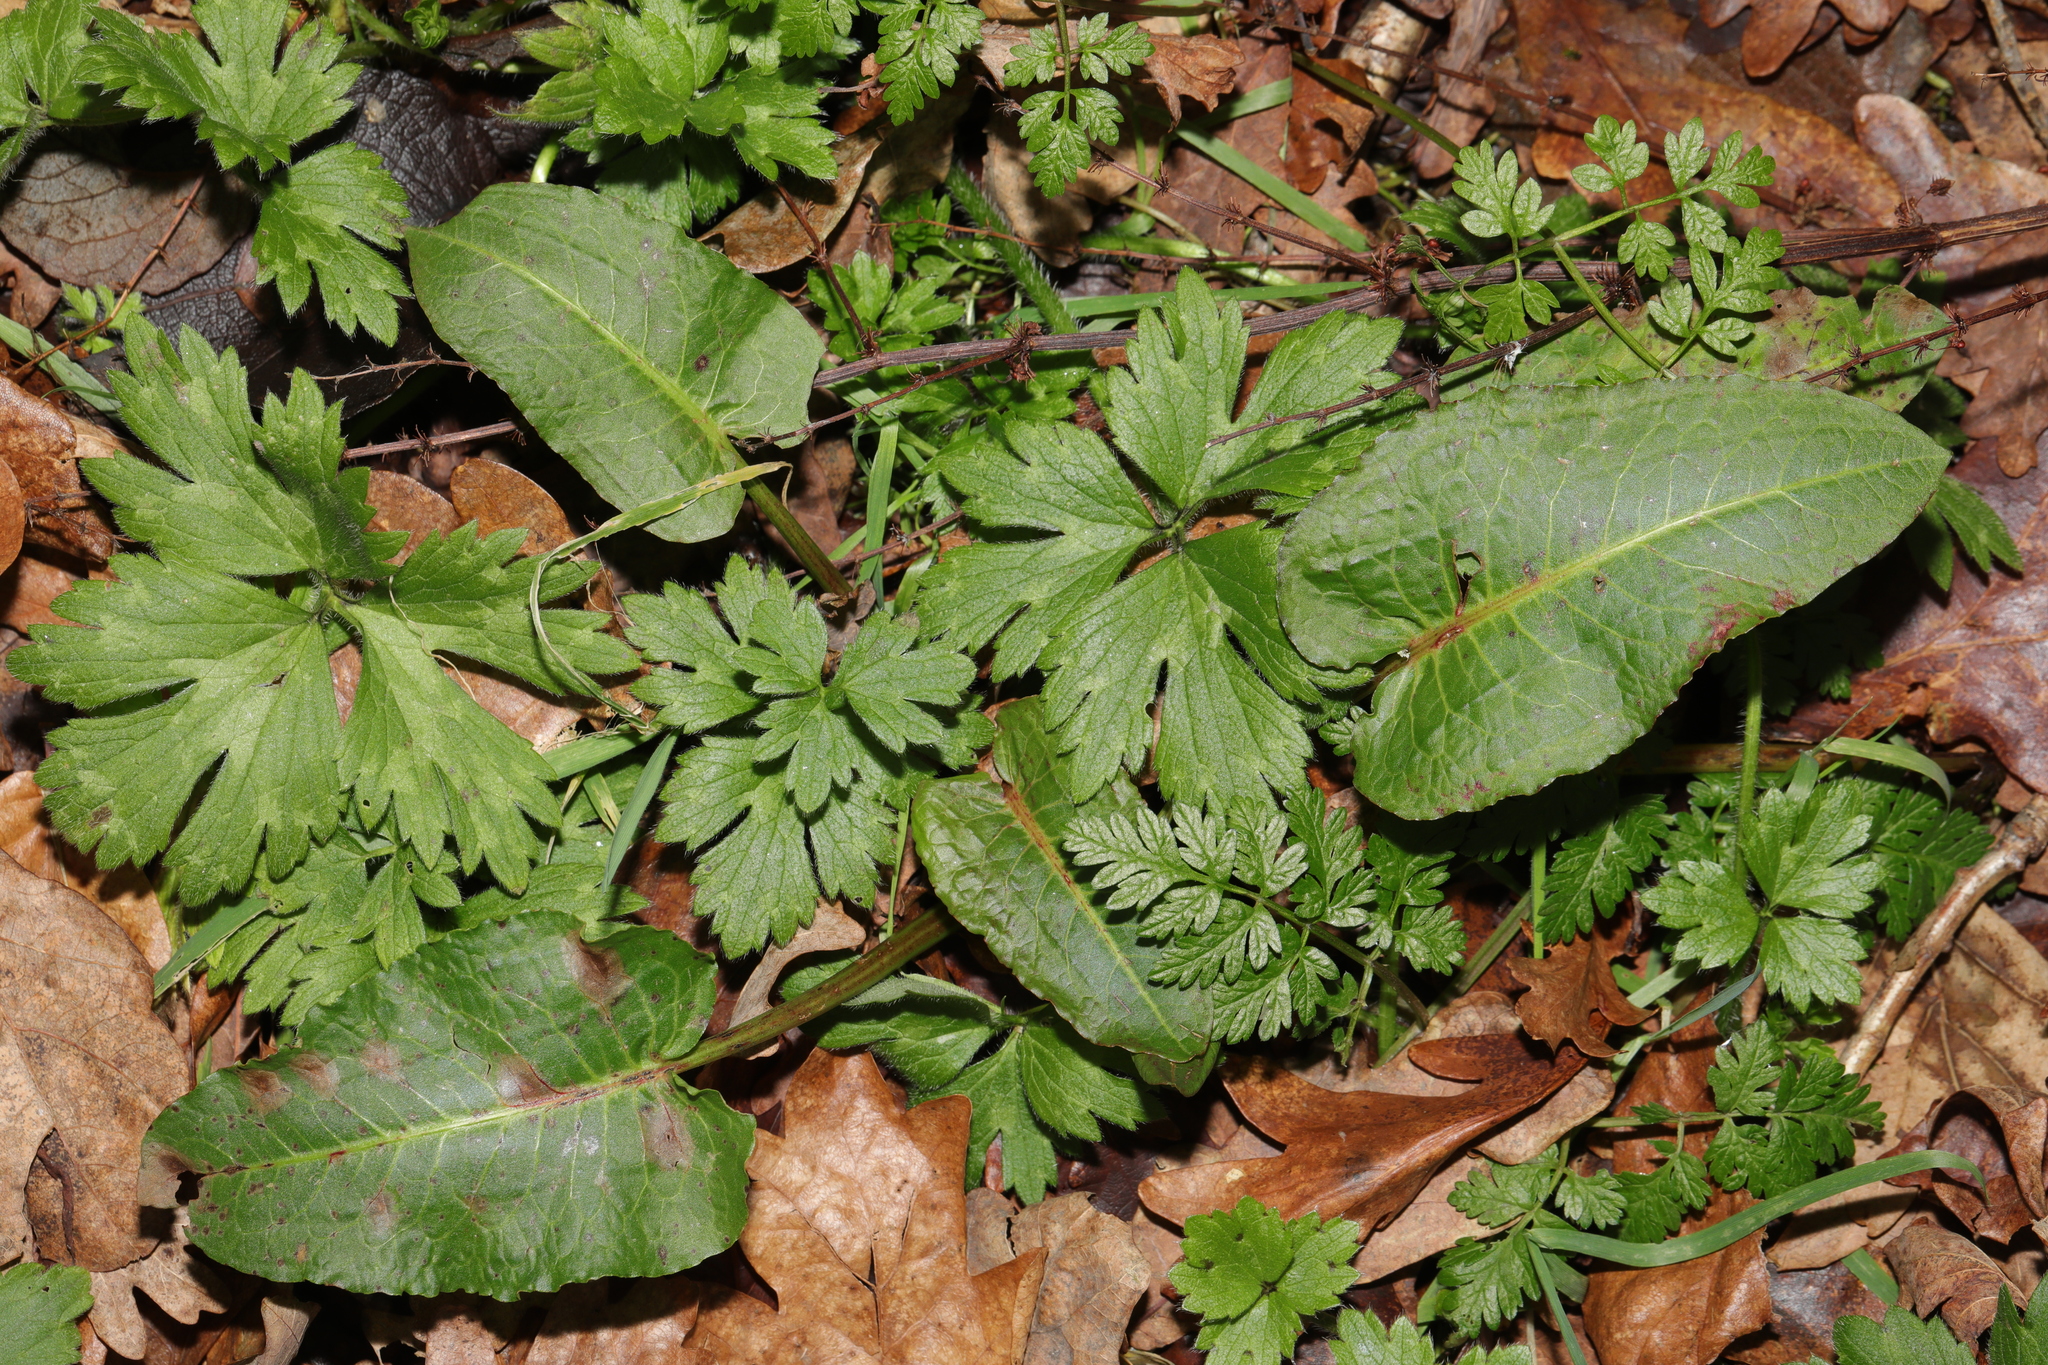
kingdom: Plantae
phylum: Tracheophyta
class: Magnoliopsida
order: Caryophyllales
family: Polygonaceae
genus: Rumex
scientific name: Rumex obtusifolius
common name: Bitter dock
